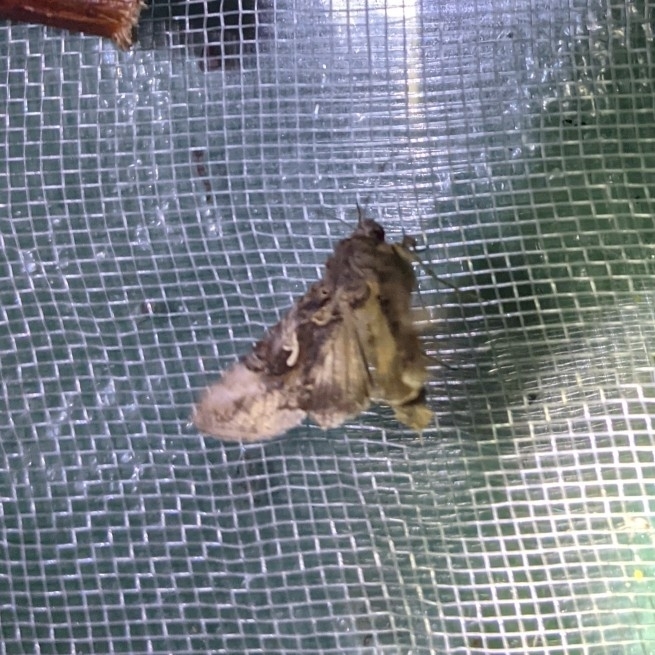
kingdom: Animalia
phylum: Arthropoda
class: Insecta
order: Lepidoptera
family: Noctuidae
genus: Autographa
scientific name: Autographa gamma
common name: Silver y
